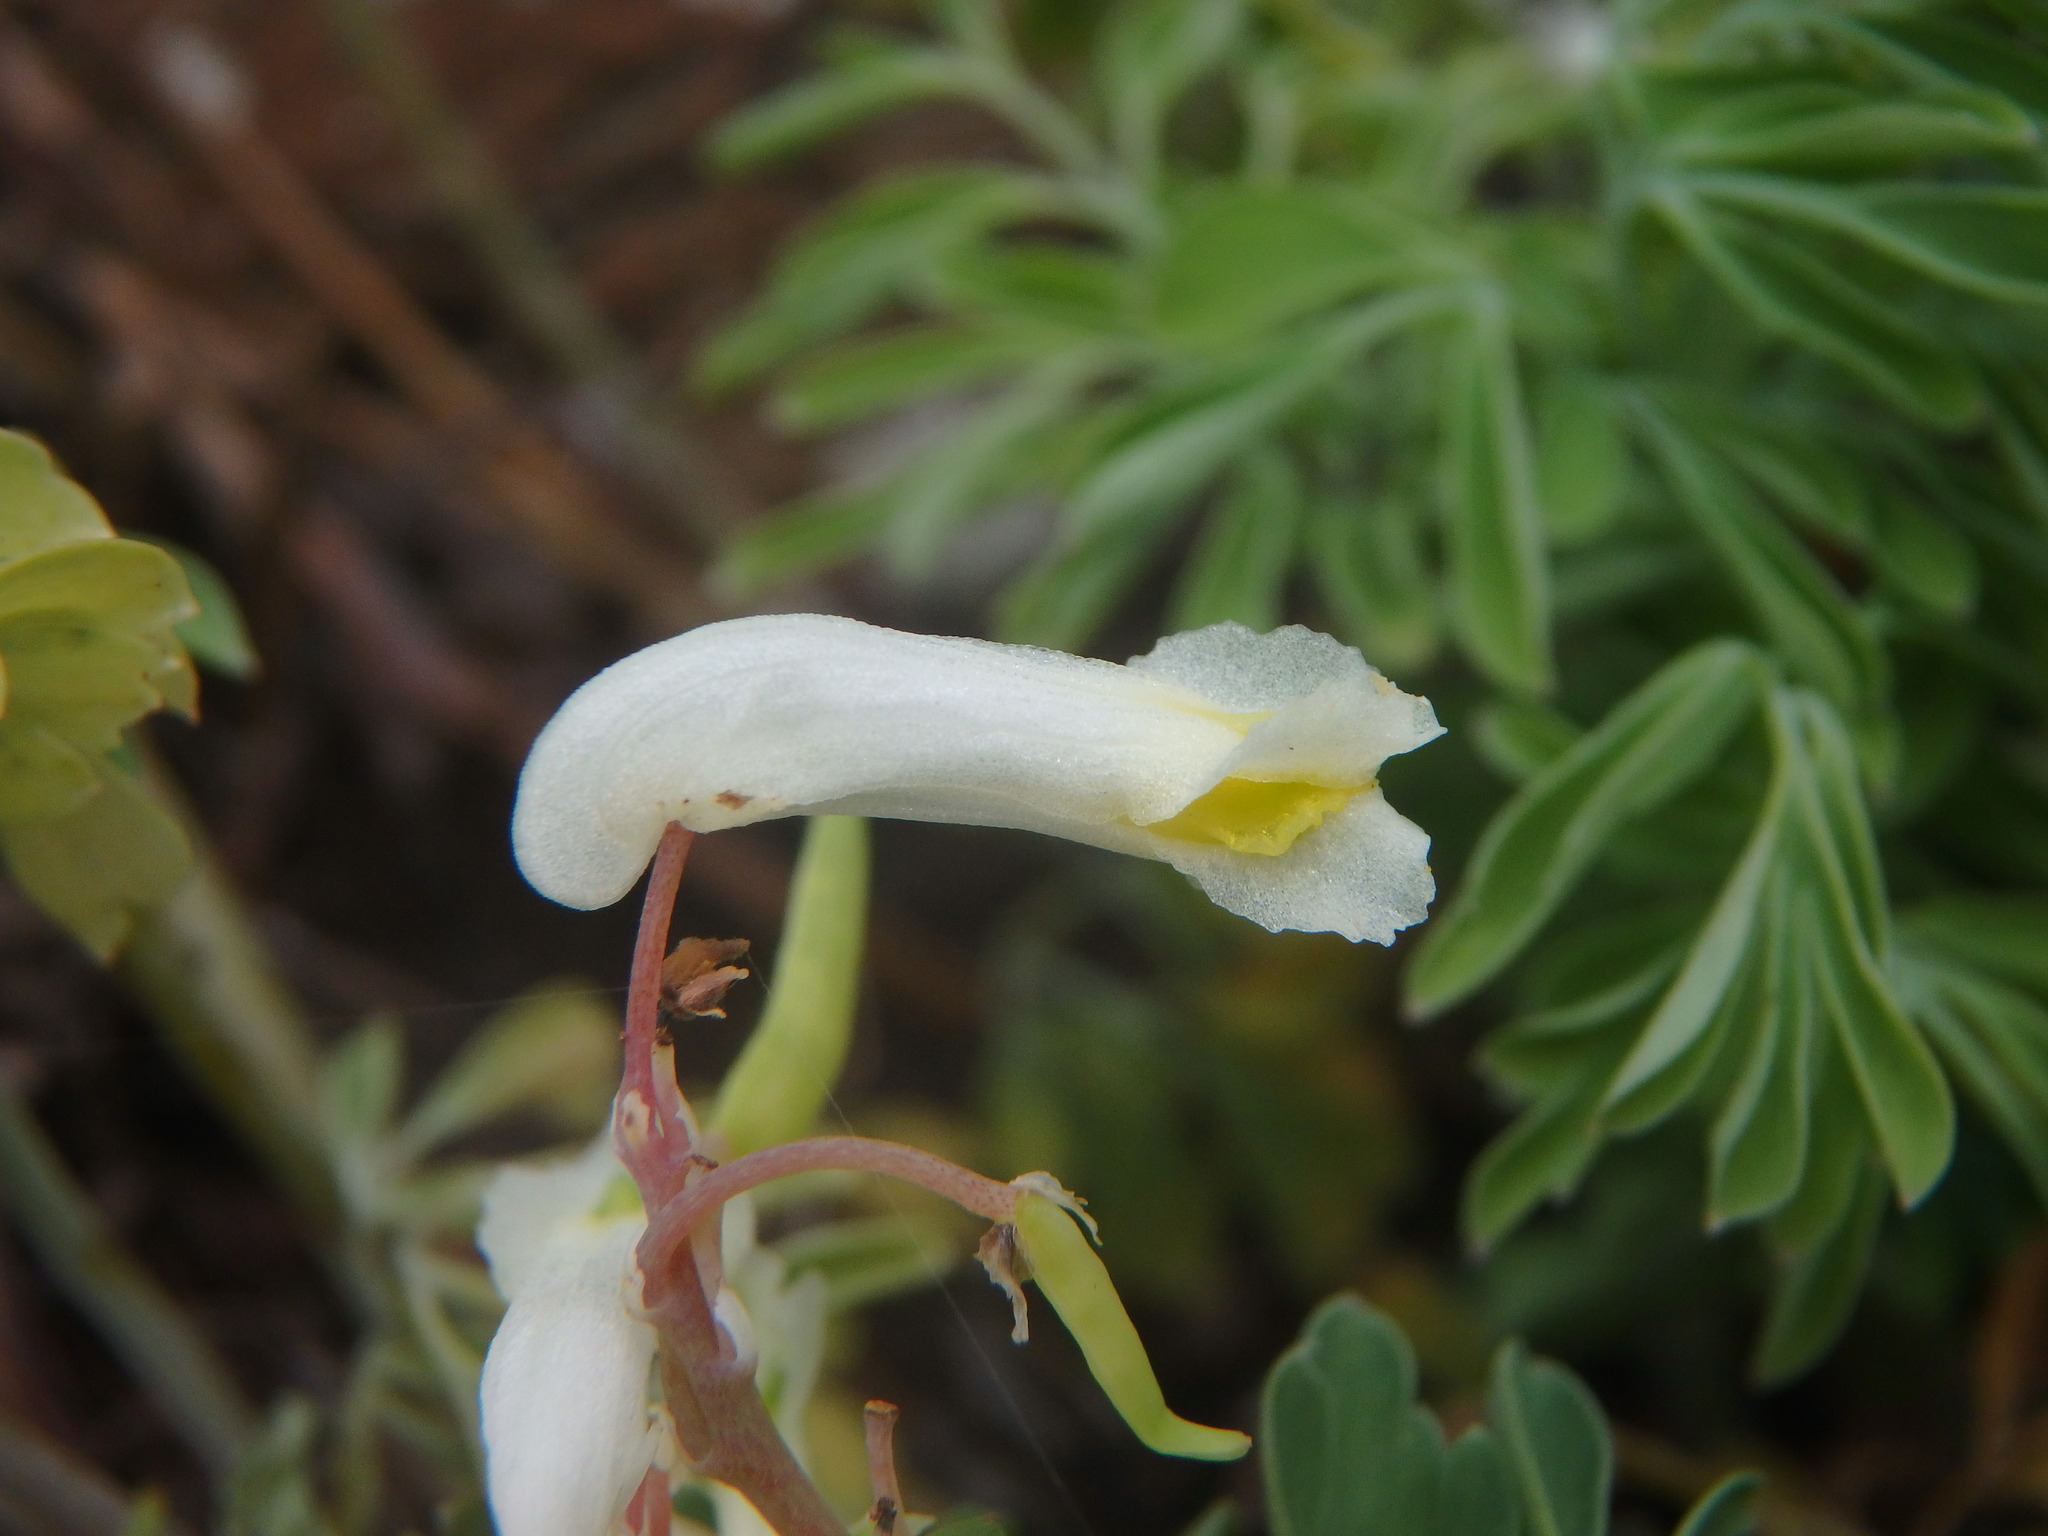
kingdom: Plantae
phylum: Tracheophyta
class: Magnoliopsida
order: Ranunculales
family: Papaveraceae
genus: Pseudofumaria
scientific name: Pseudofumaria alba
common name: Pale corydalis
